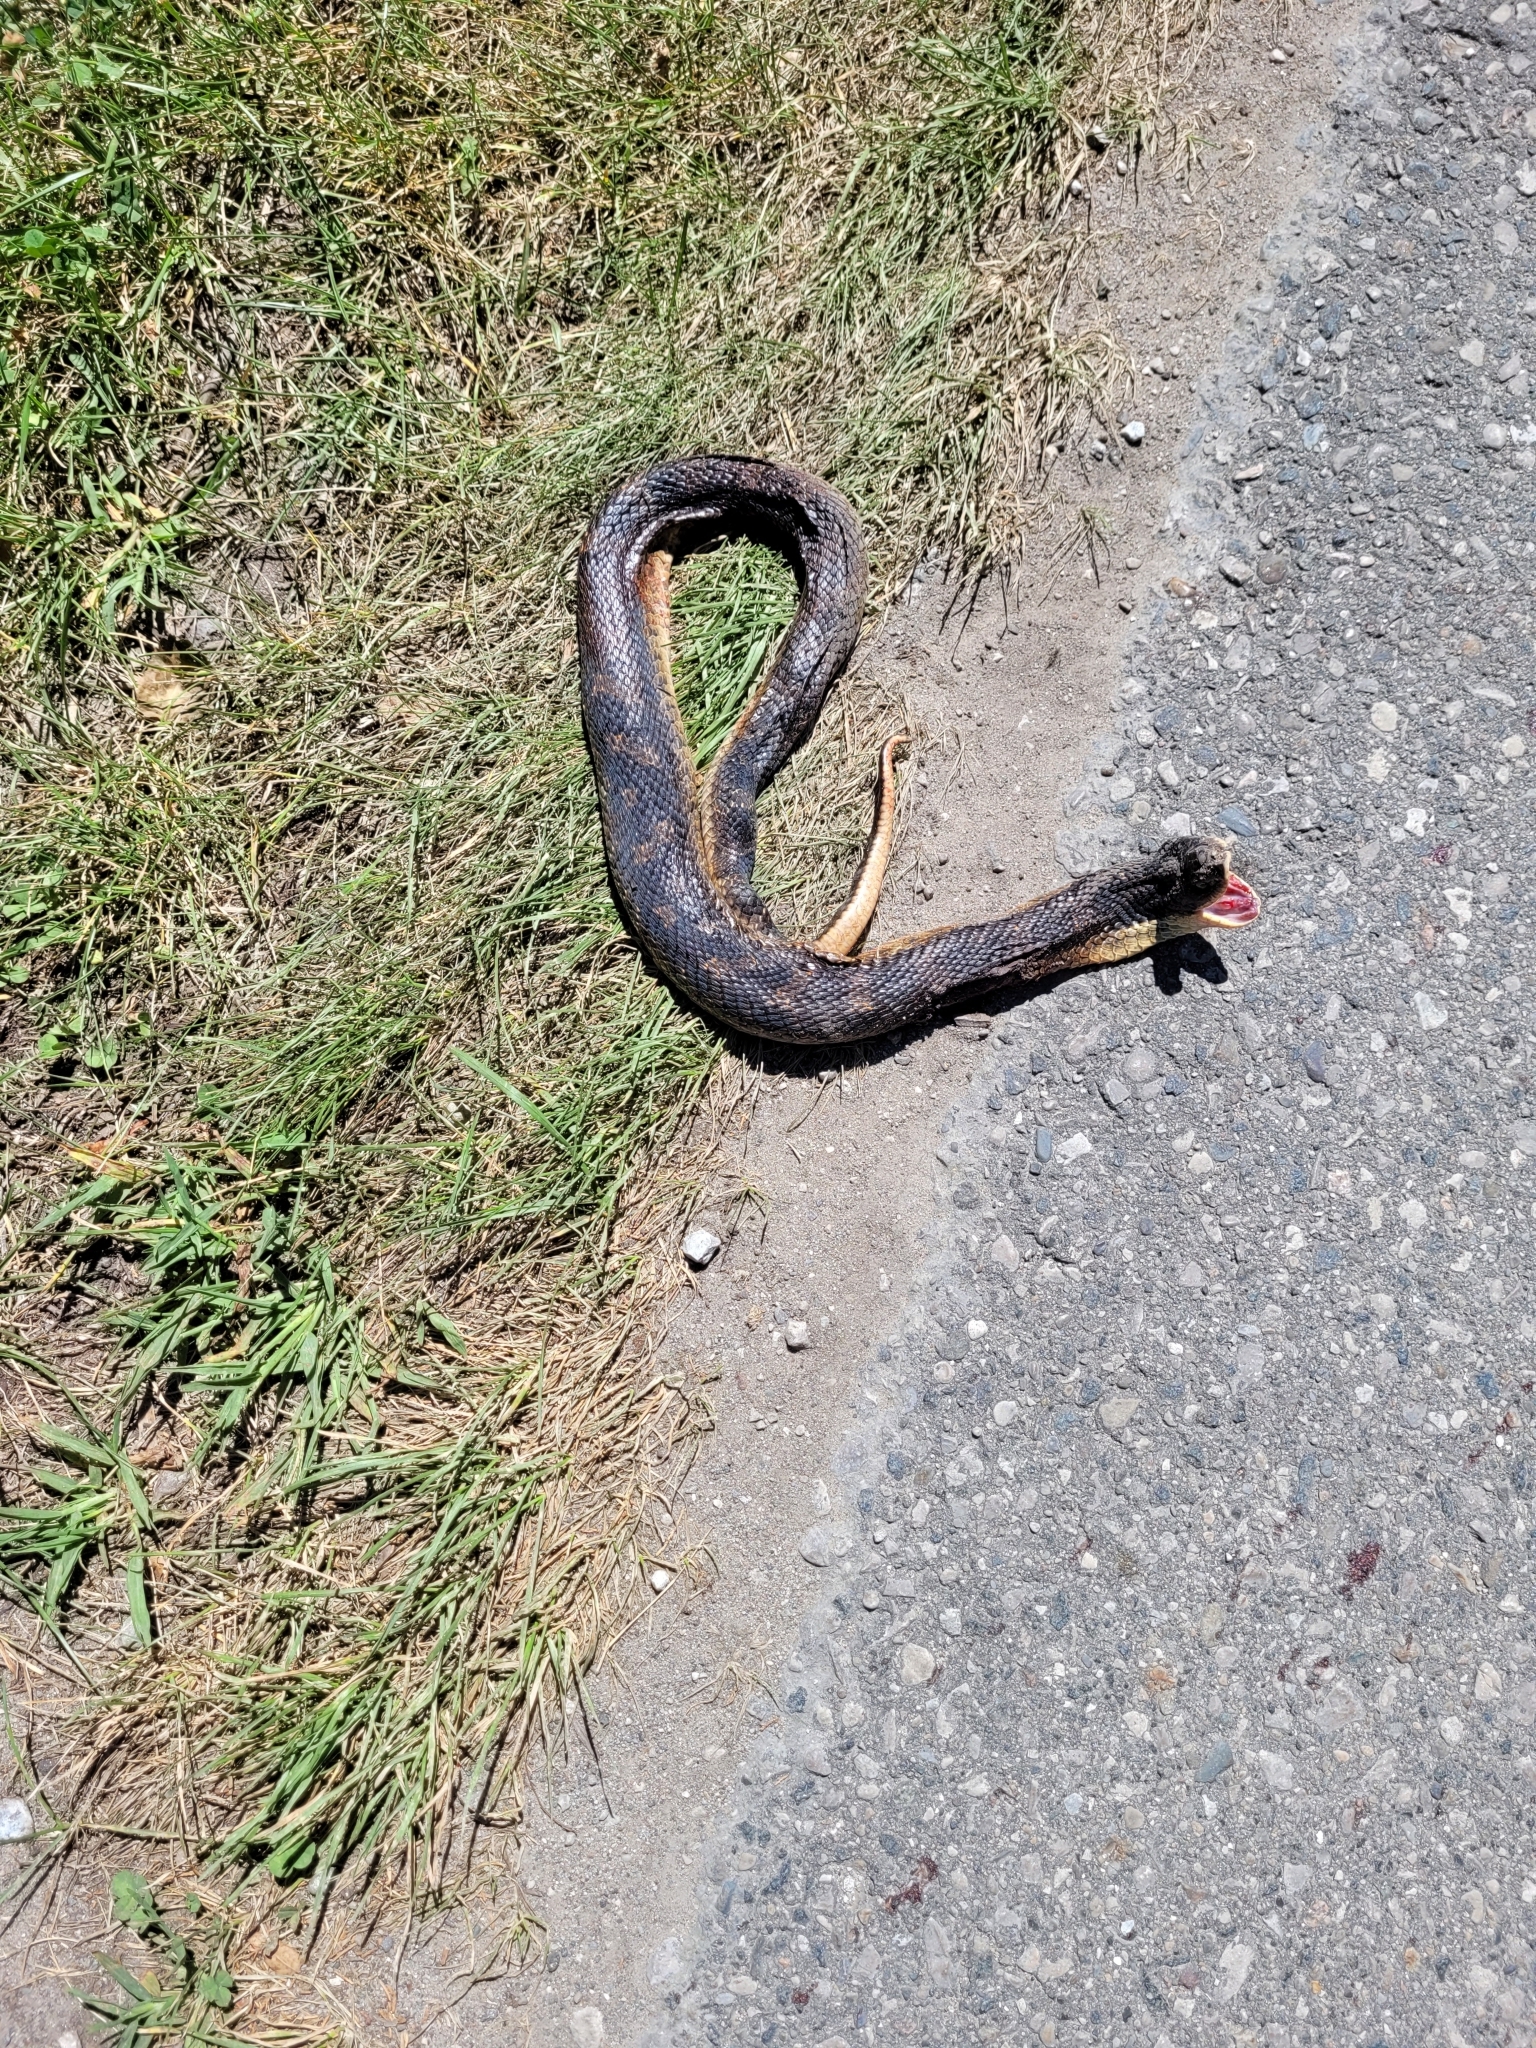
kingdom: Animalia
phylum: Chordata
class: Squamata
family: Colubridae
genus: Heterodon
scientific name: Heterodon platirhinos
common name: Eastern hognose snake
